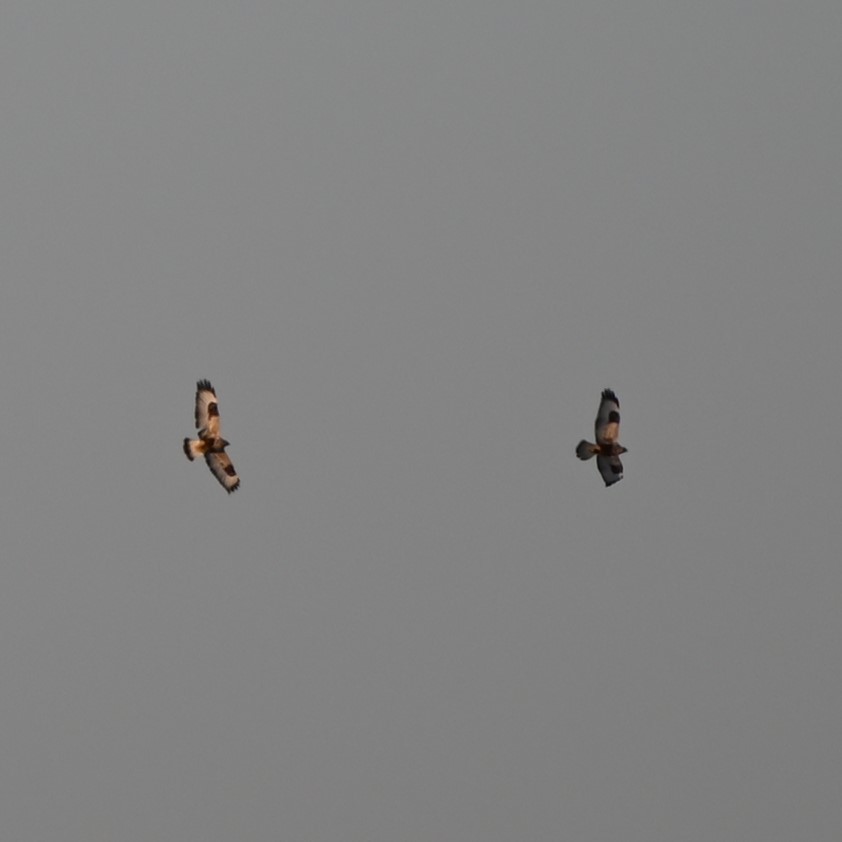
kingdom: Animalia
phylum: Chordata
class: Aves
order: Accipitriformes
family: Accipitridae
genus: Buteo
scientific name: Buteo lagopus
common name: Rough-legged buzzard
